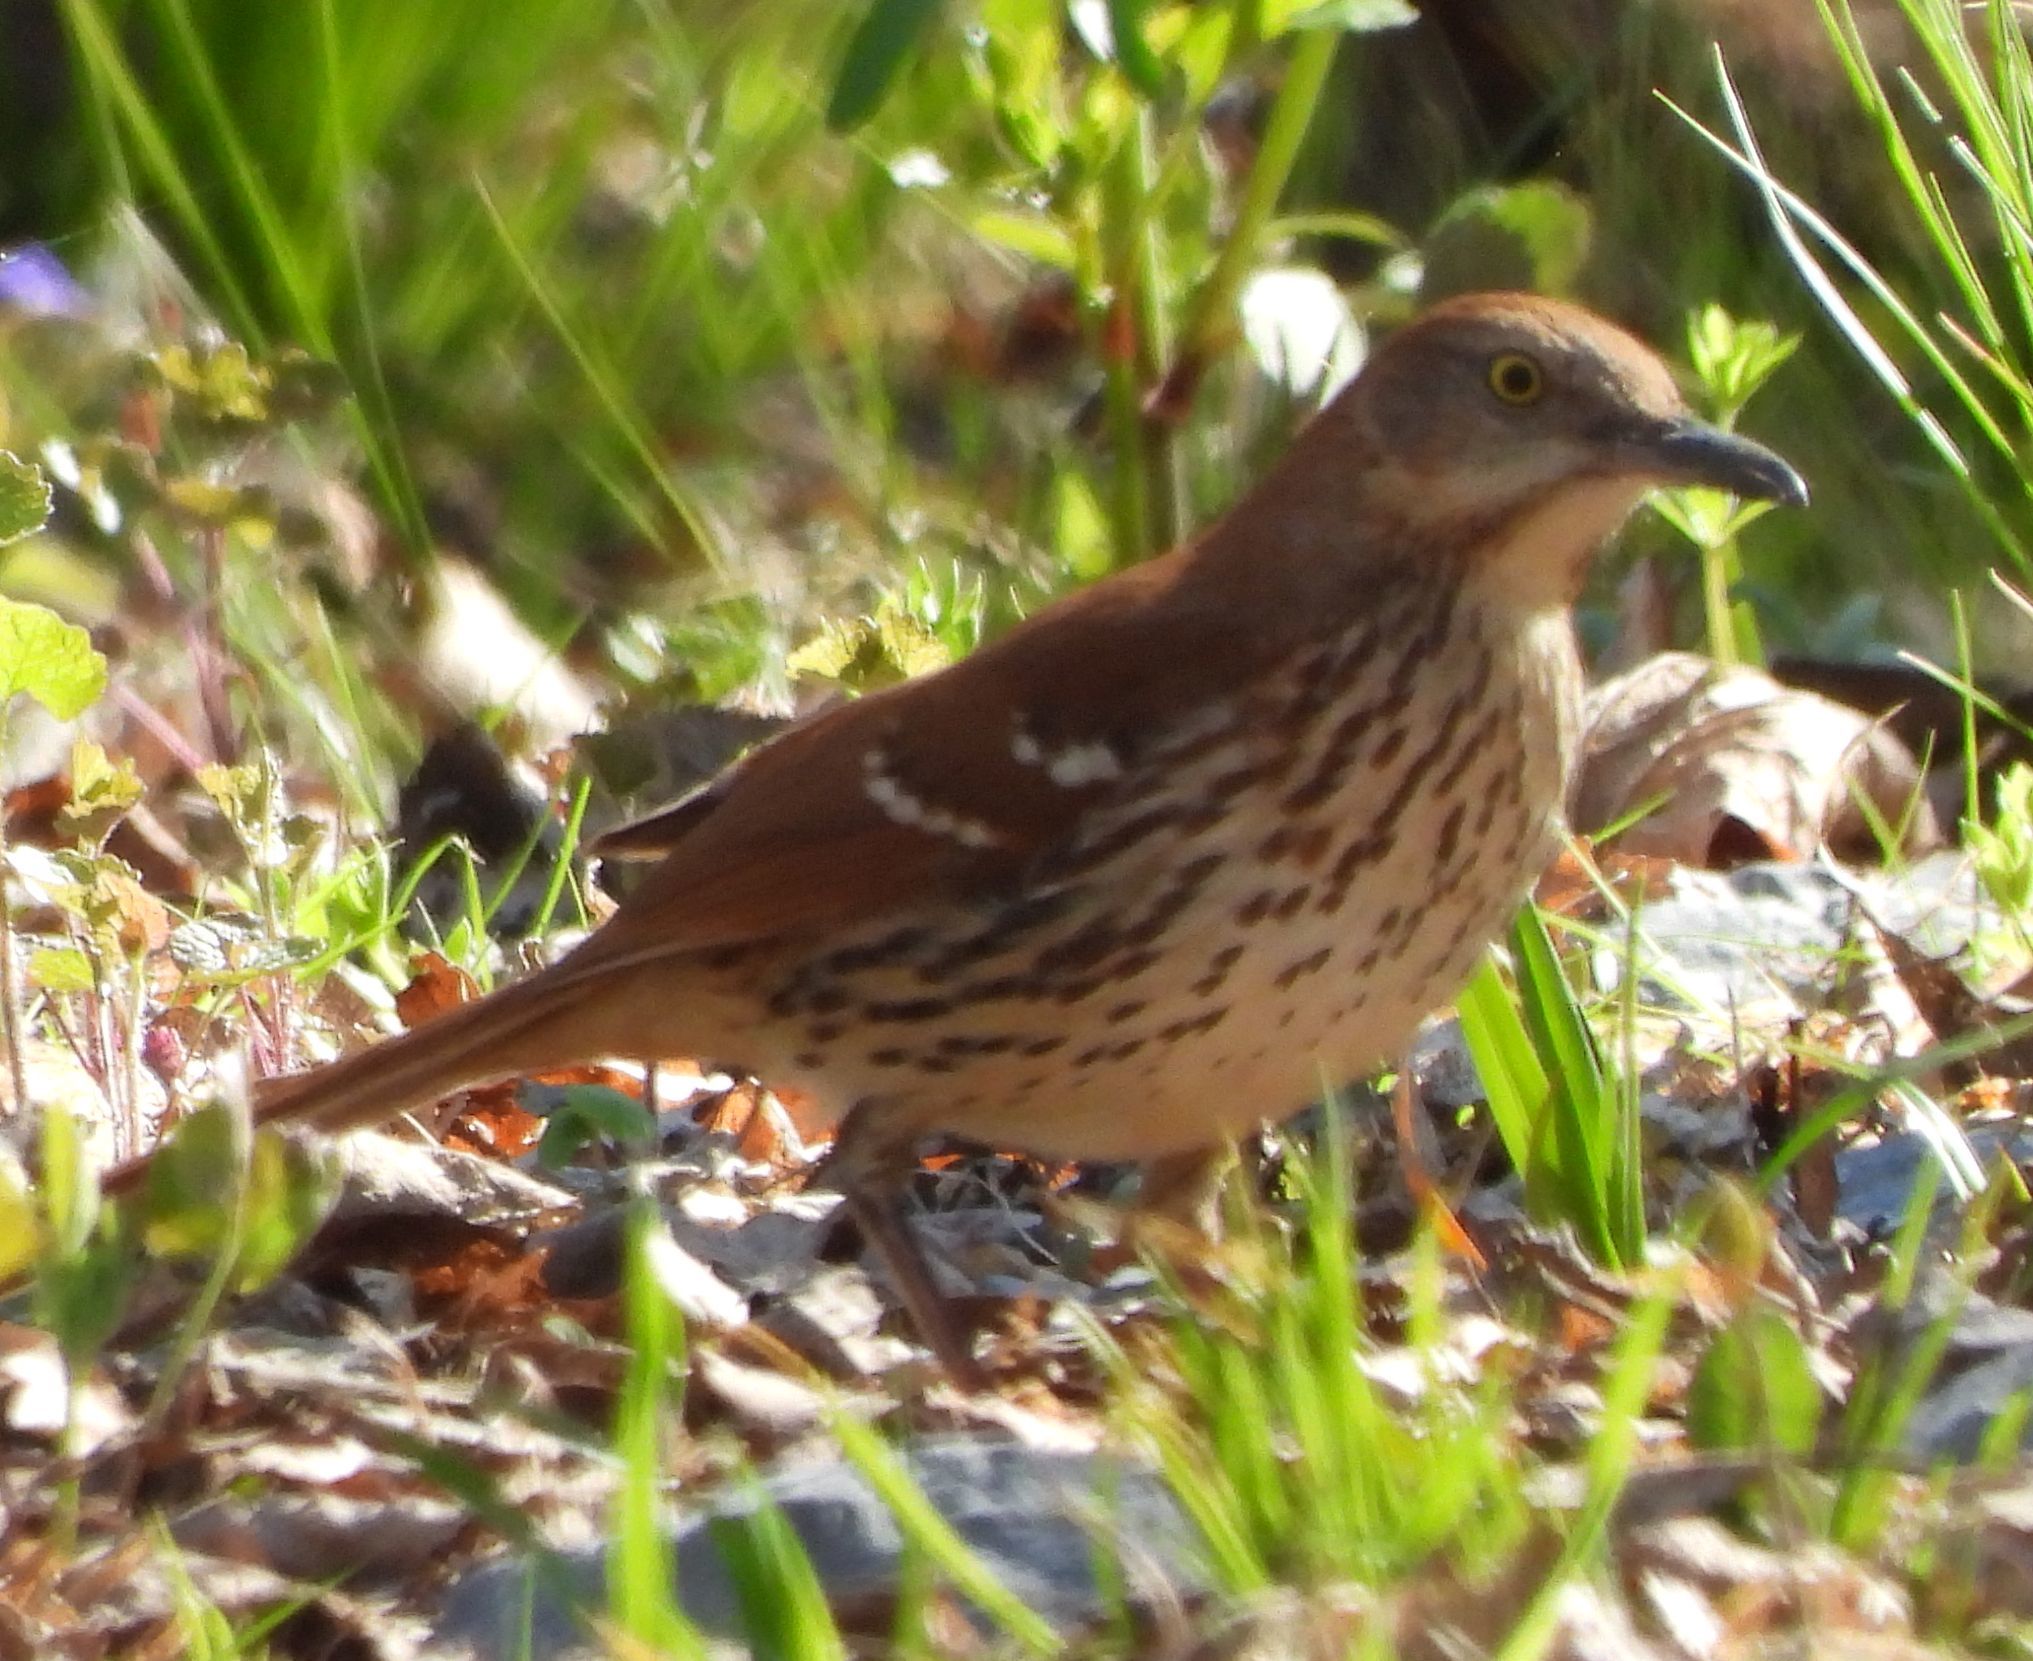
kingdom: Animalia
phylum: Chordata
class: Aves
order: Passeriformes
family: Mimidae
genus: Toxostoma
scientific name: Toxostoma rufum
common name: Brown thrasher
